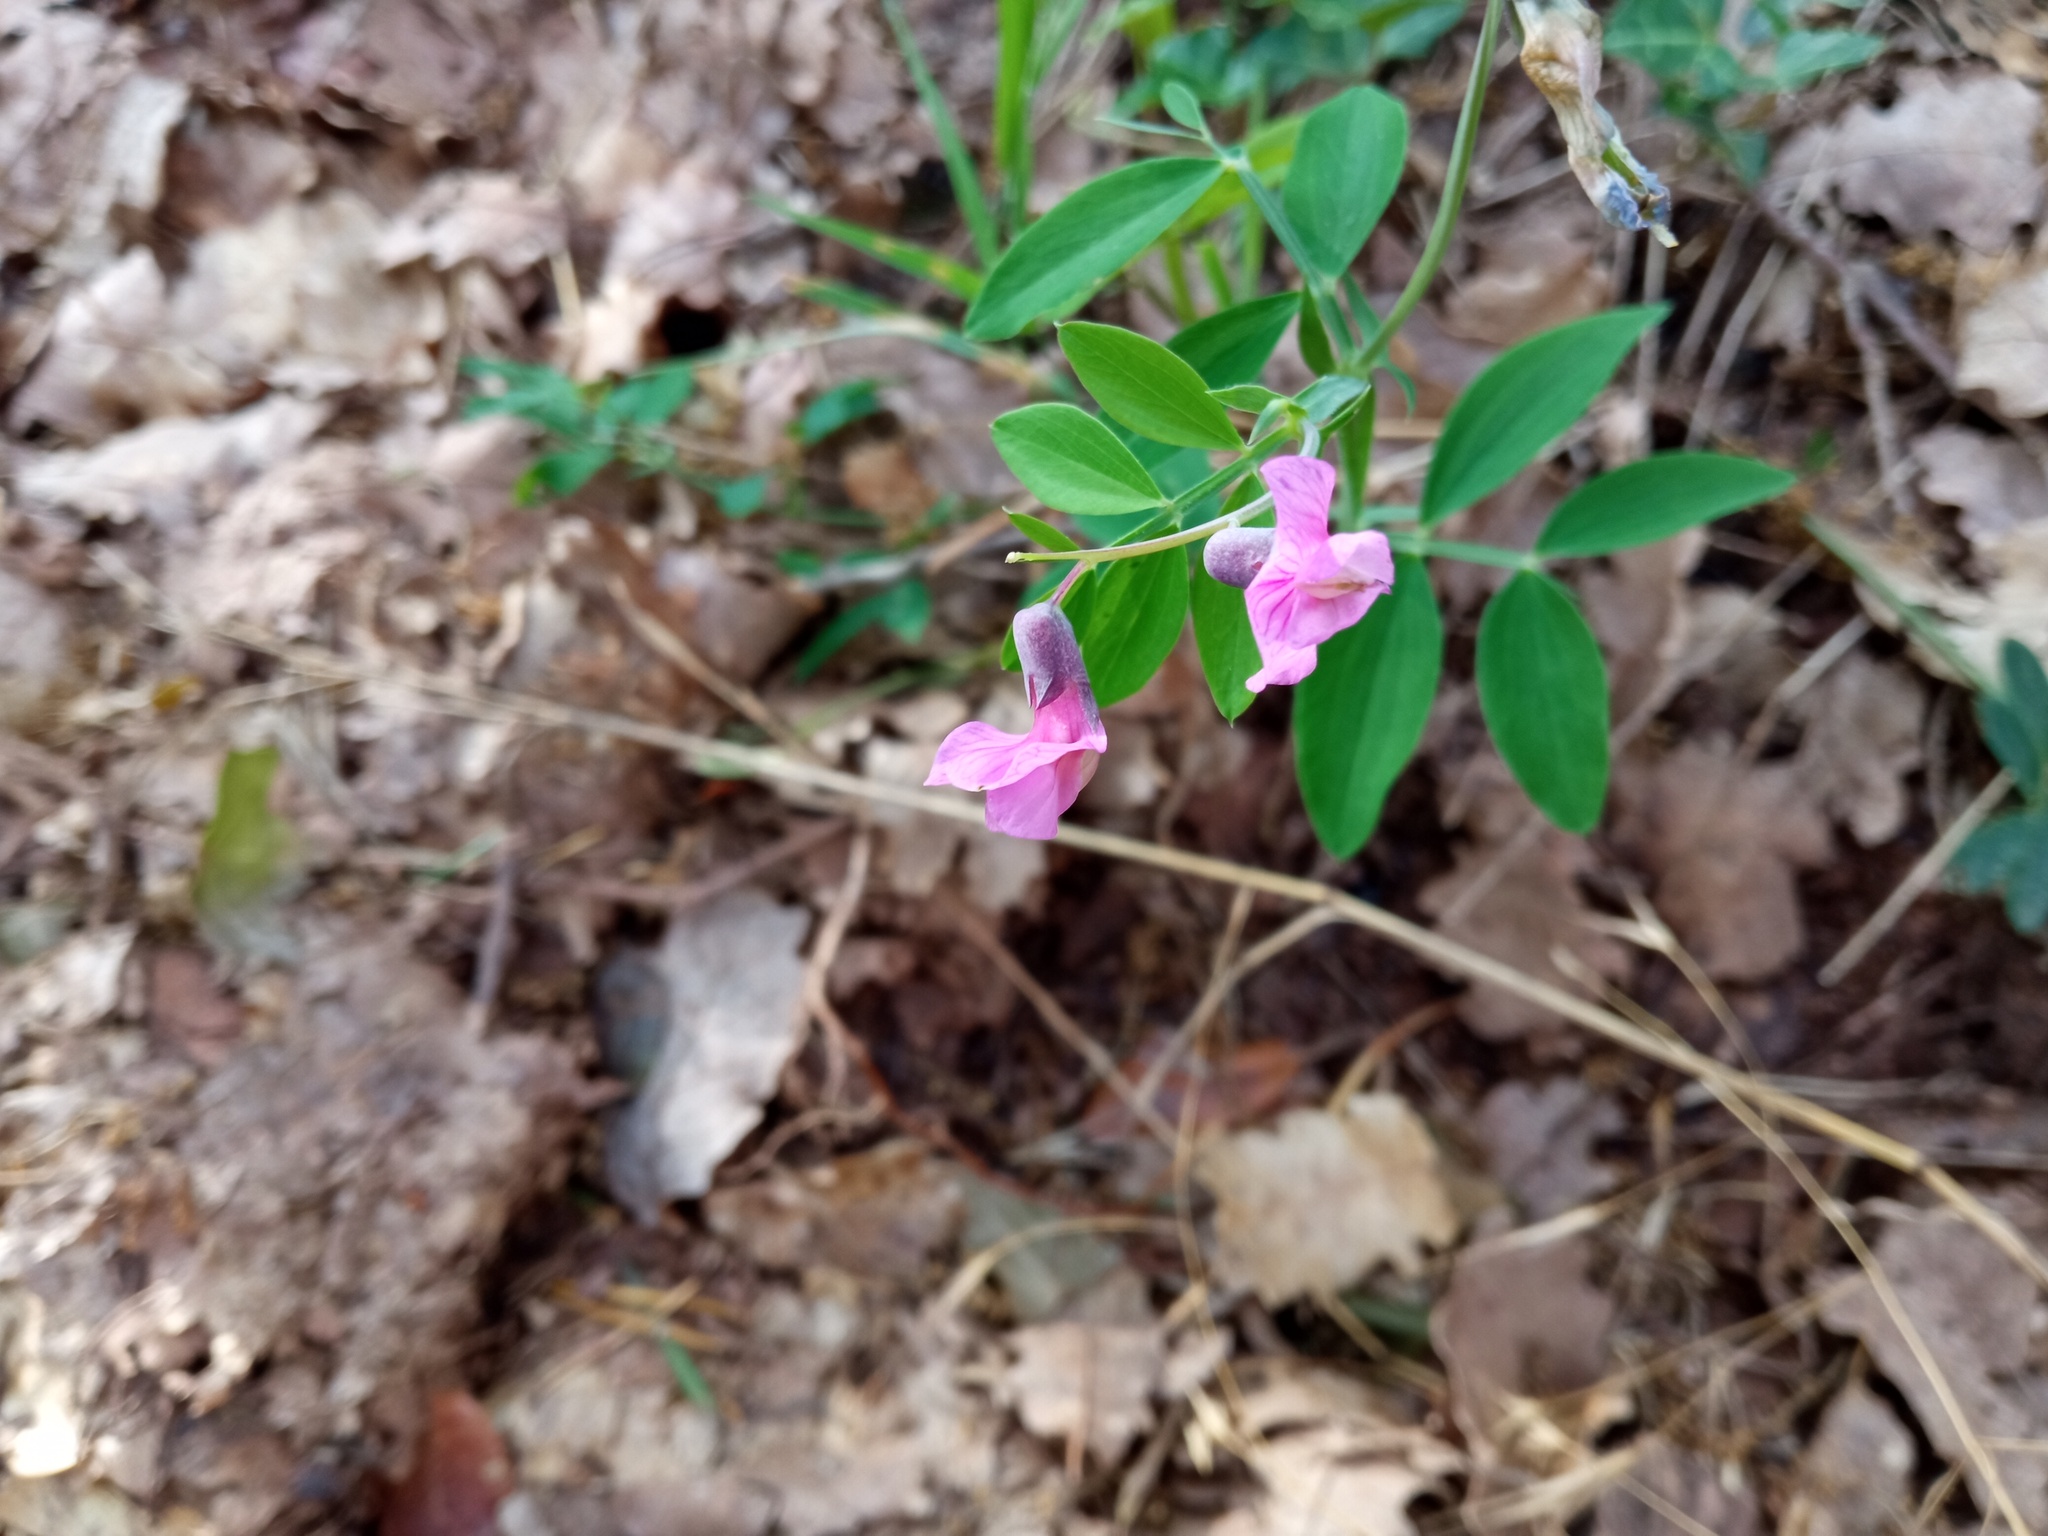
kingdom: Plantae
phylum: Tracheophyta
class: Magnoliopsida
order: Fabales
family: Fabaceae
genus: Lathyrus
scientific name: Lathyrus linifolius
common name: Bitter-vetch
